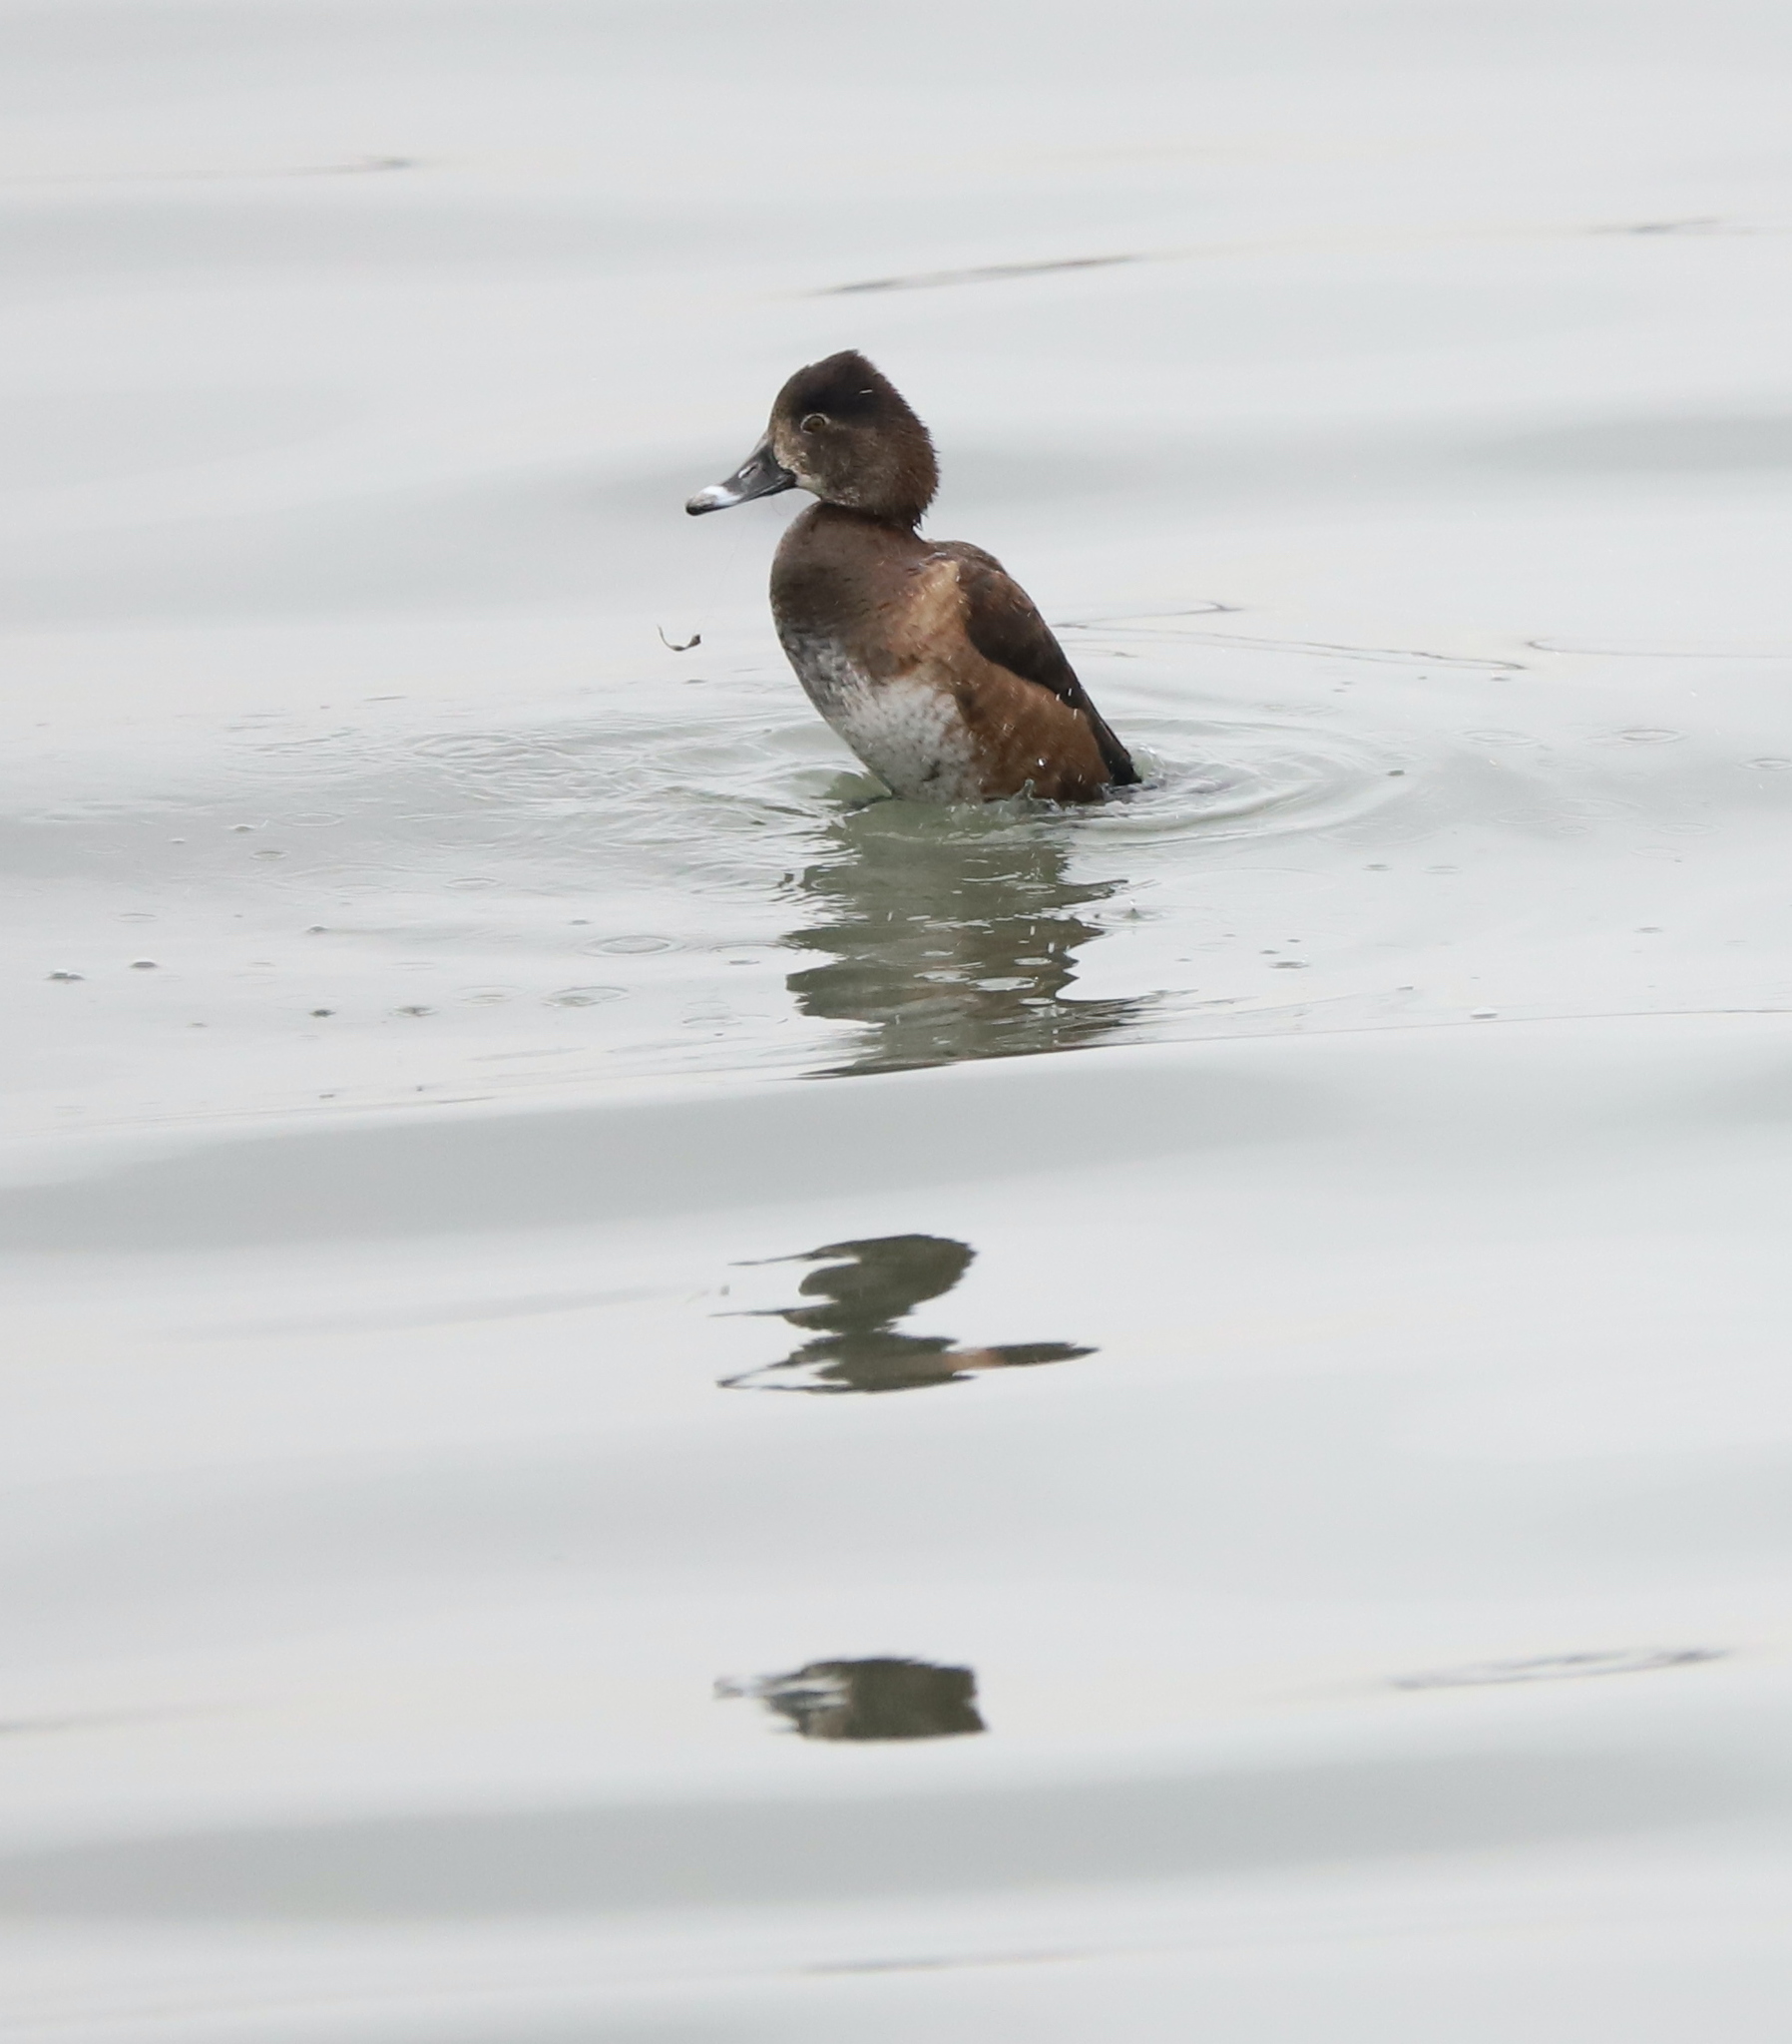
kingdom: Animalia
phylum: Chordata
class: Aves
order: Anseriformes
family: Anatidae
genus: Aythya
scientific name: Aythya collaris
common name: Ring-necked duck
